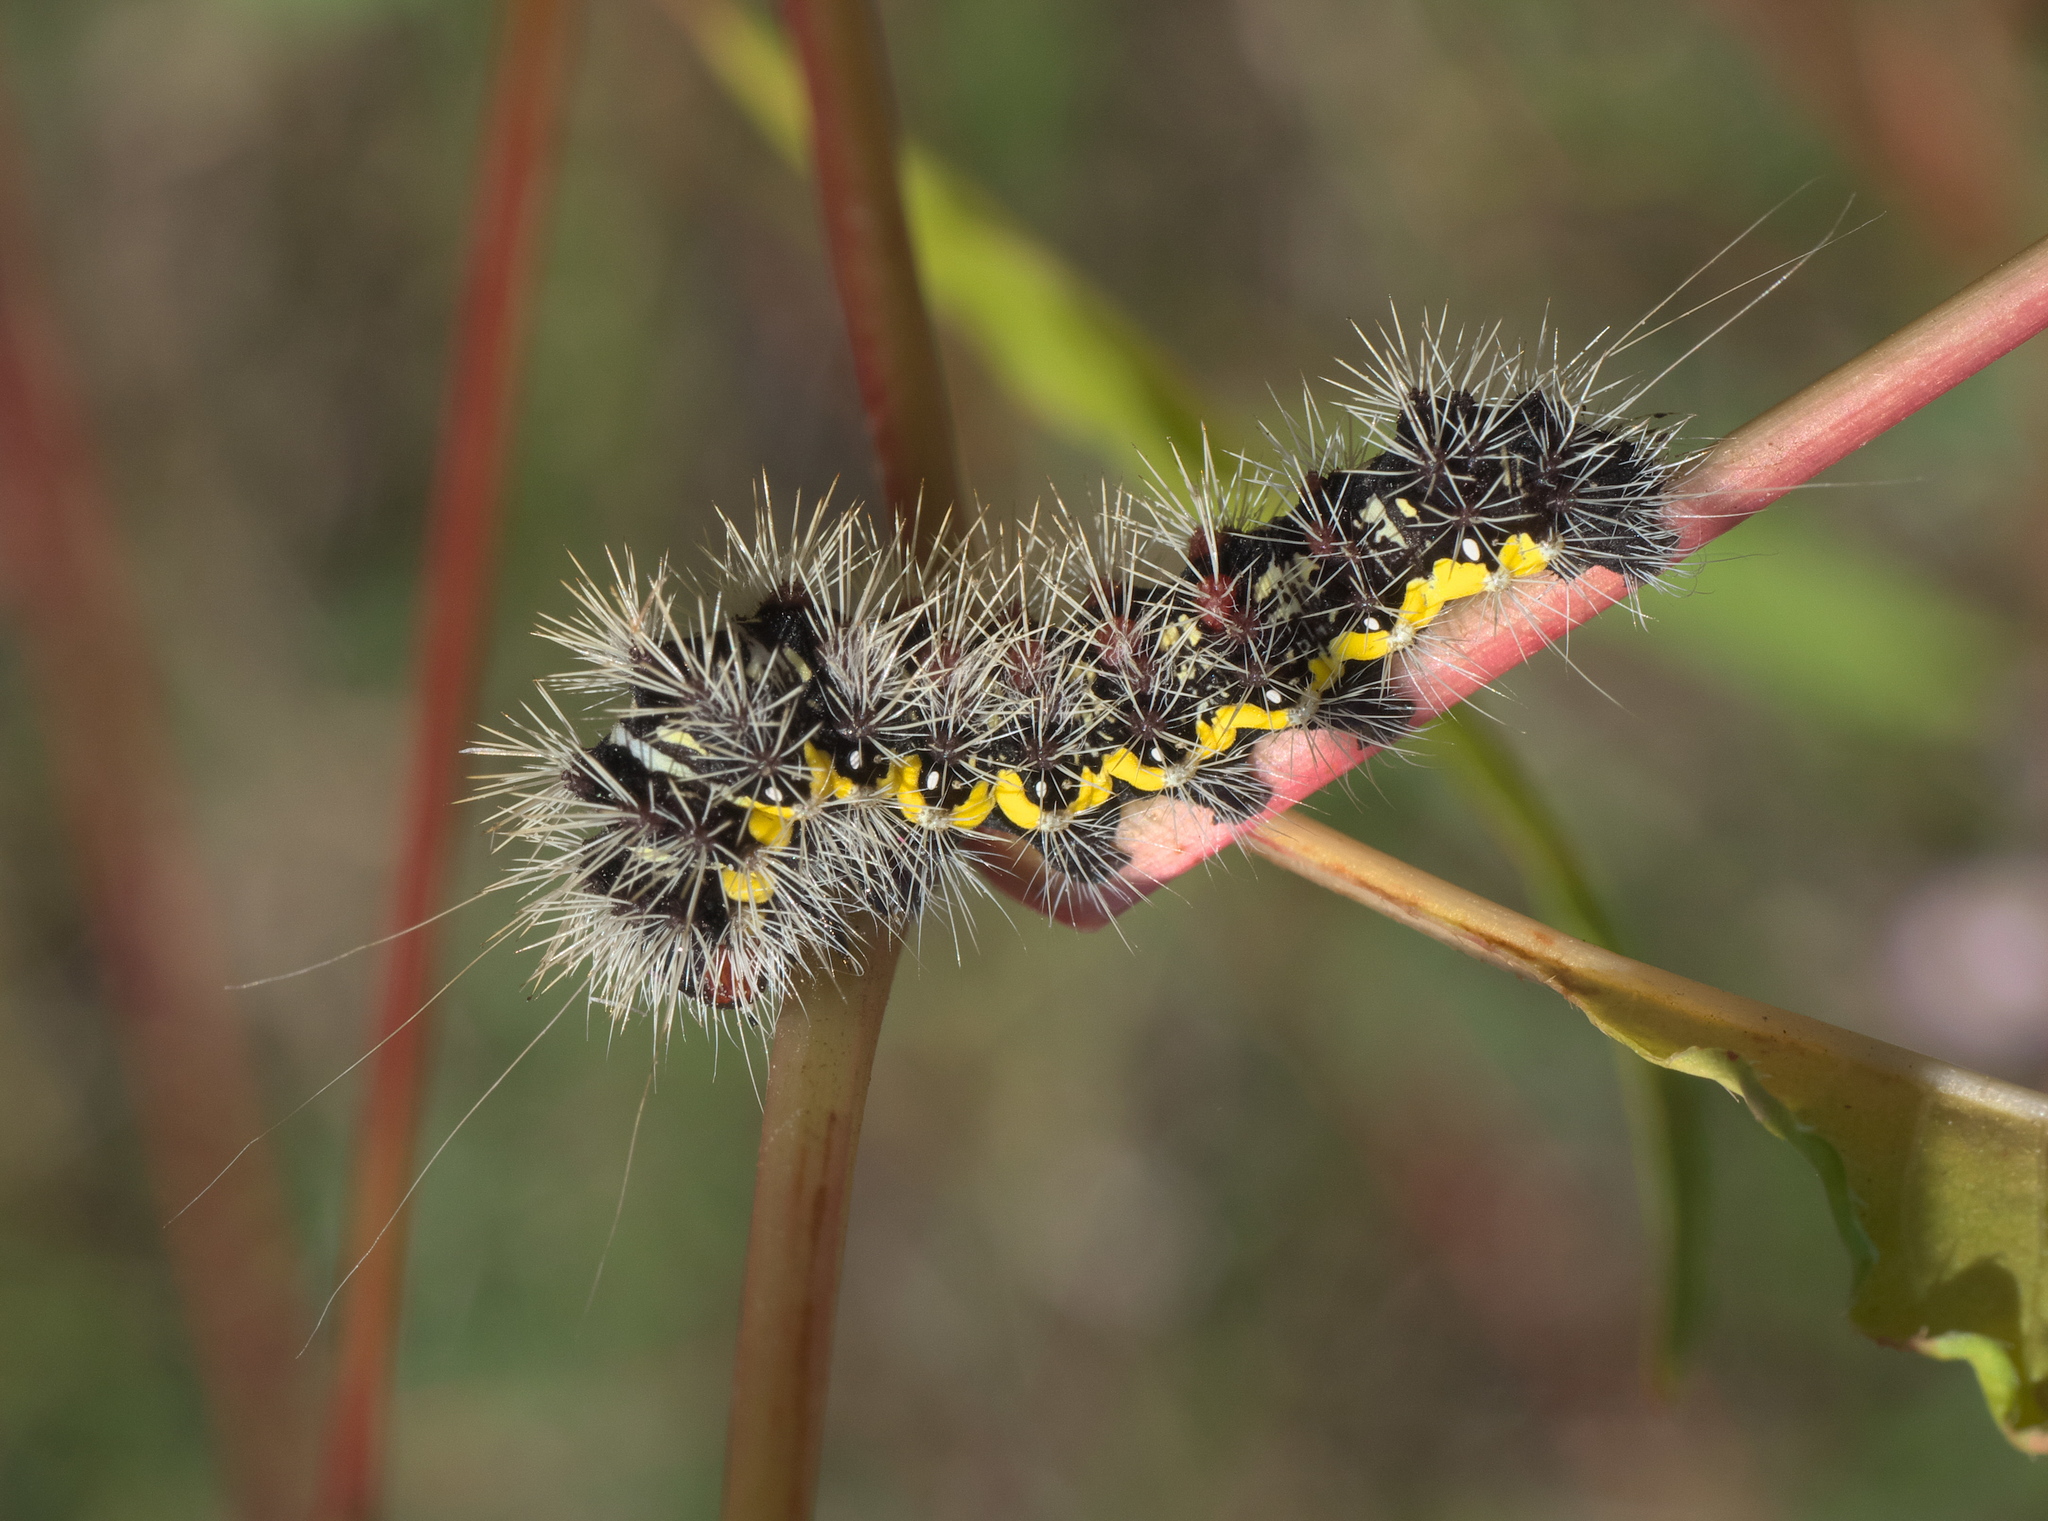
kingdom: Animalia
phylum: Arthropoda
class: Insecta
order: Lepidoptera
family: Noctuidae
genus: Acronicta
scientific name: Acronicta oblinita
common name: Smeared dagger
